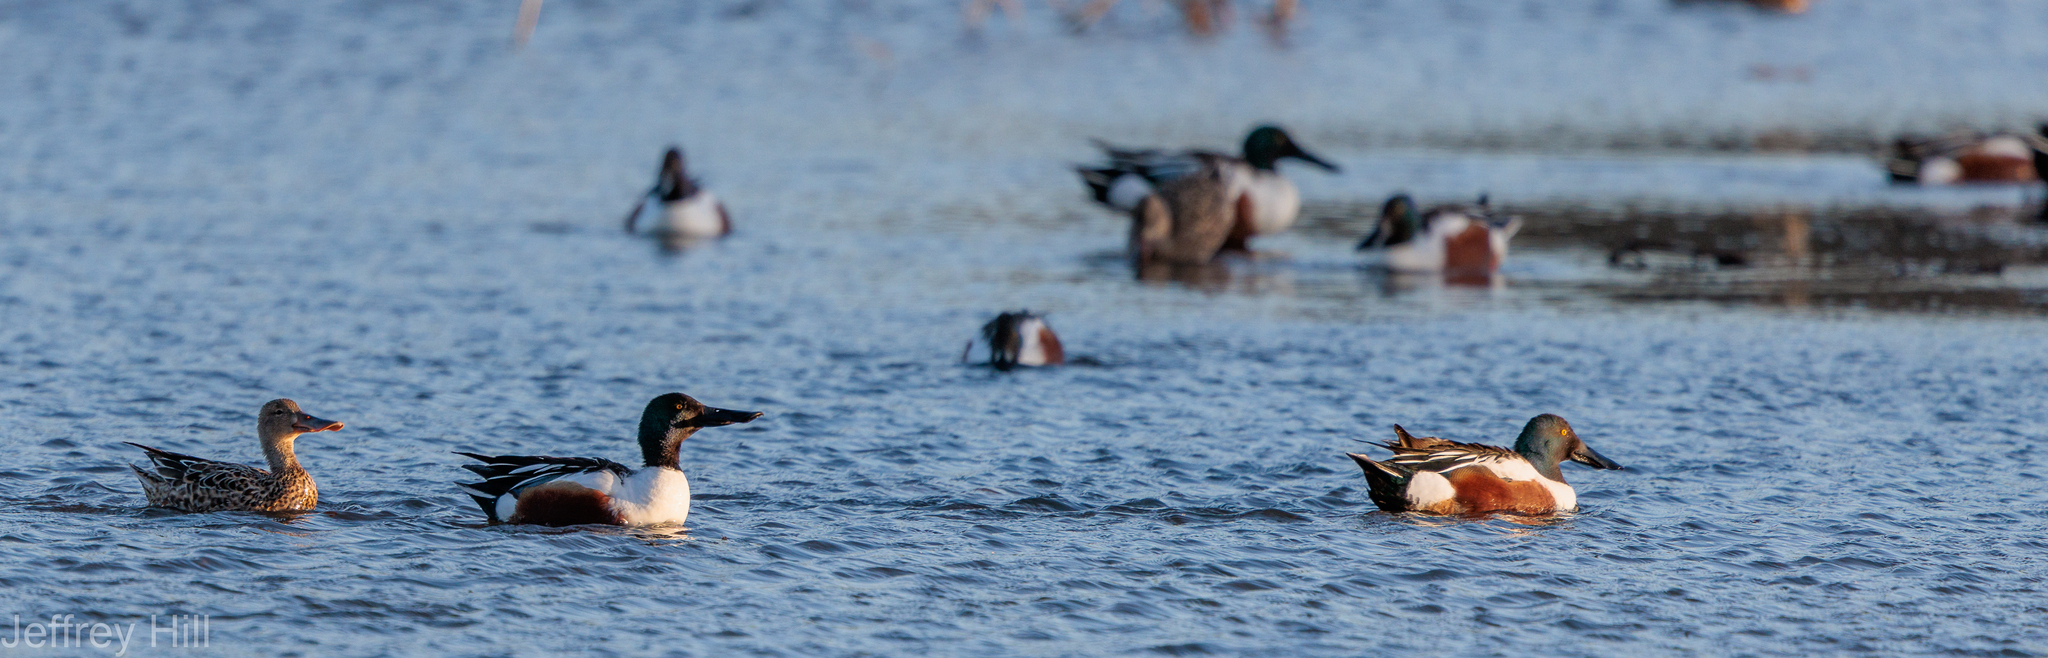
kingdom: Animalia
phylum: Chordata
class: Aves
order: Anseriformes
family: Anatidae
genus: Spatula
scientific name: Spatula clypeata
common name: Northern shoveler
